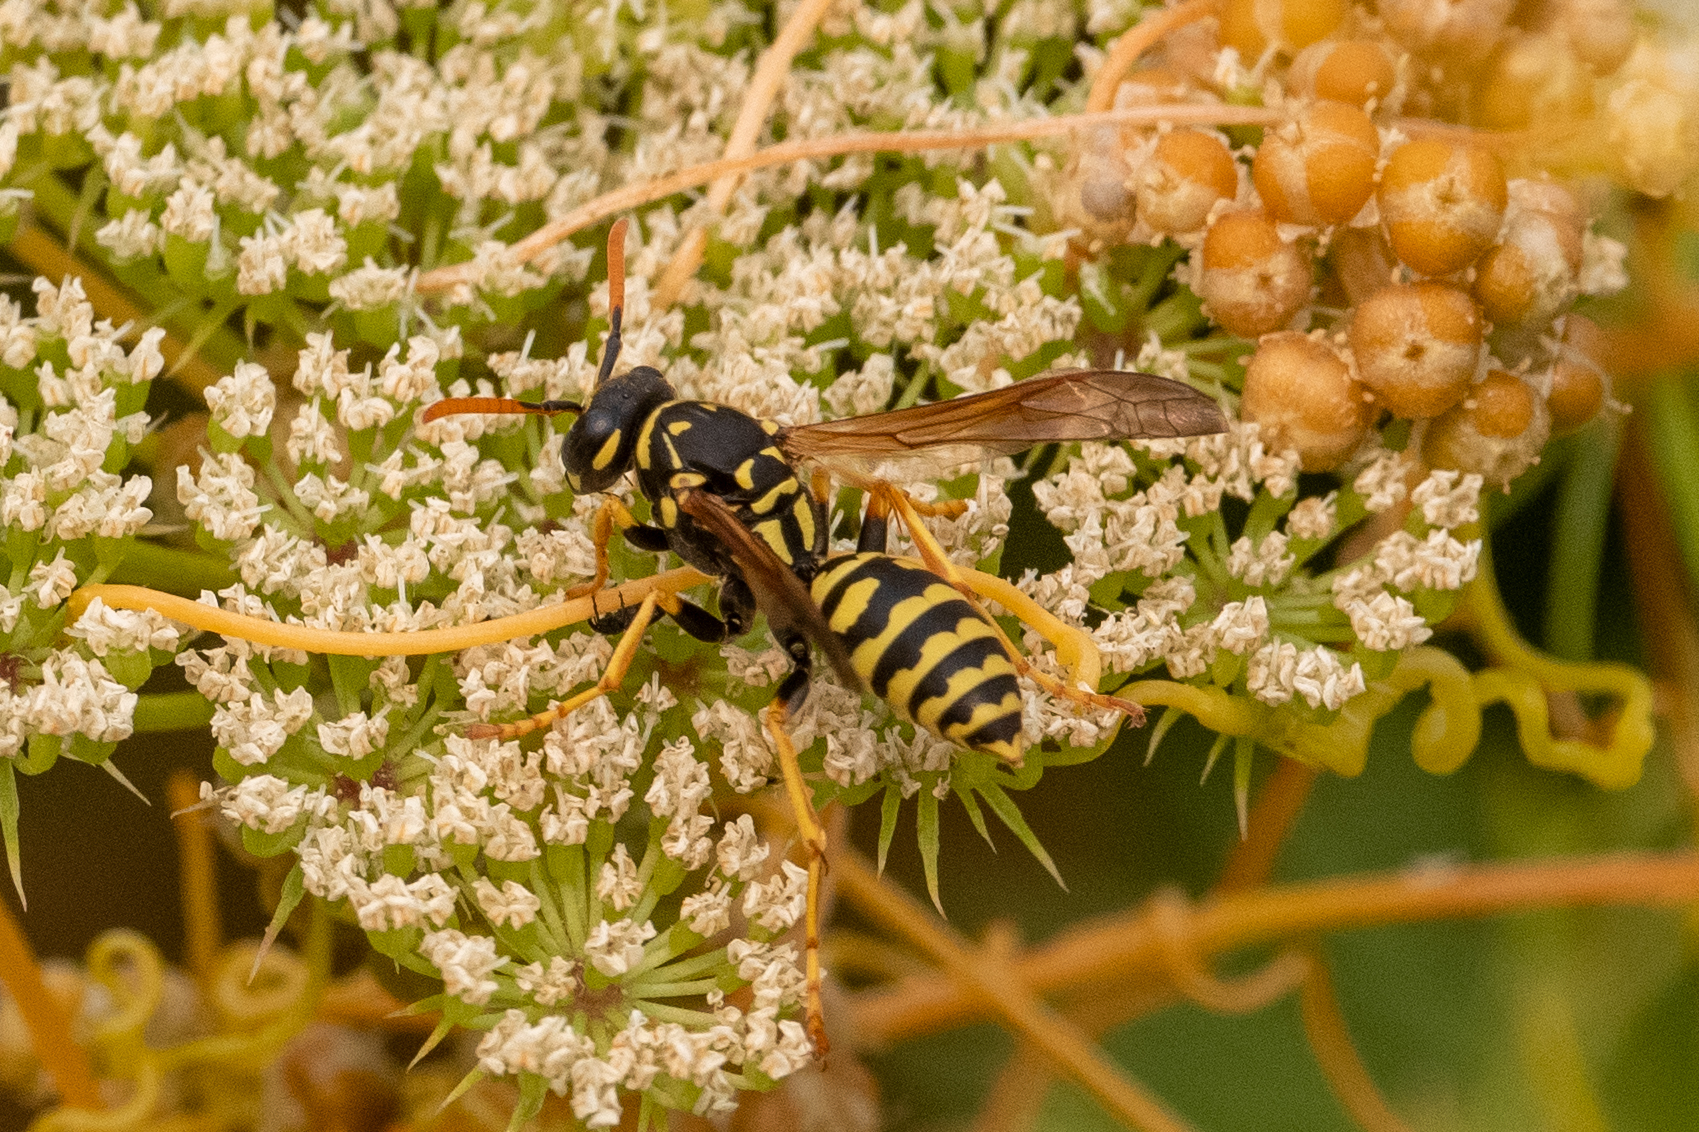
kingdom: Animalia
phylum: Arthropoda
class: Insecta
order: Hymenoptera
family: Eumenidae
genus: Polistes
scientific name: Polistes dominula
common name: Paper wasp
